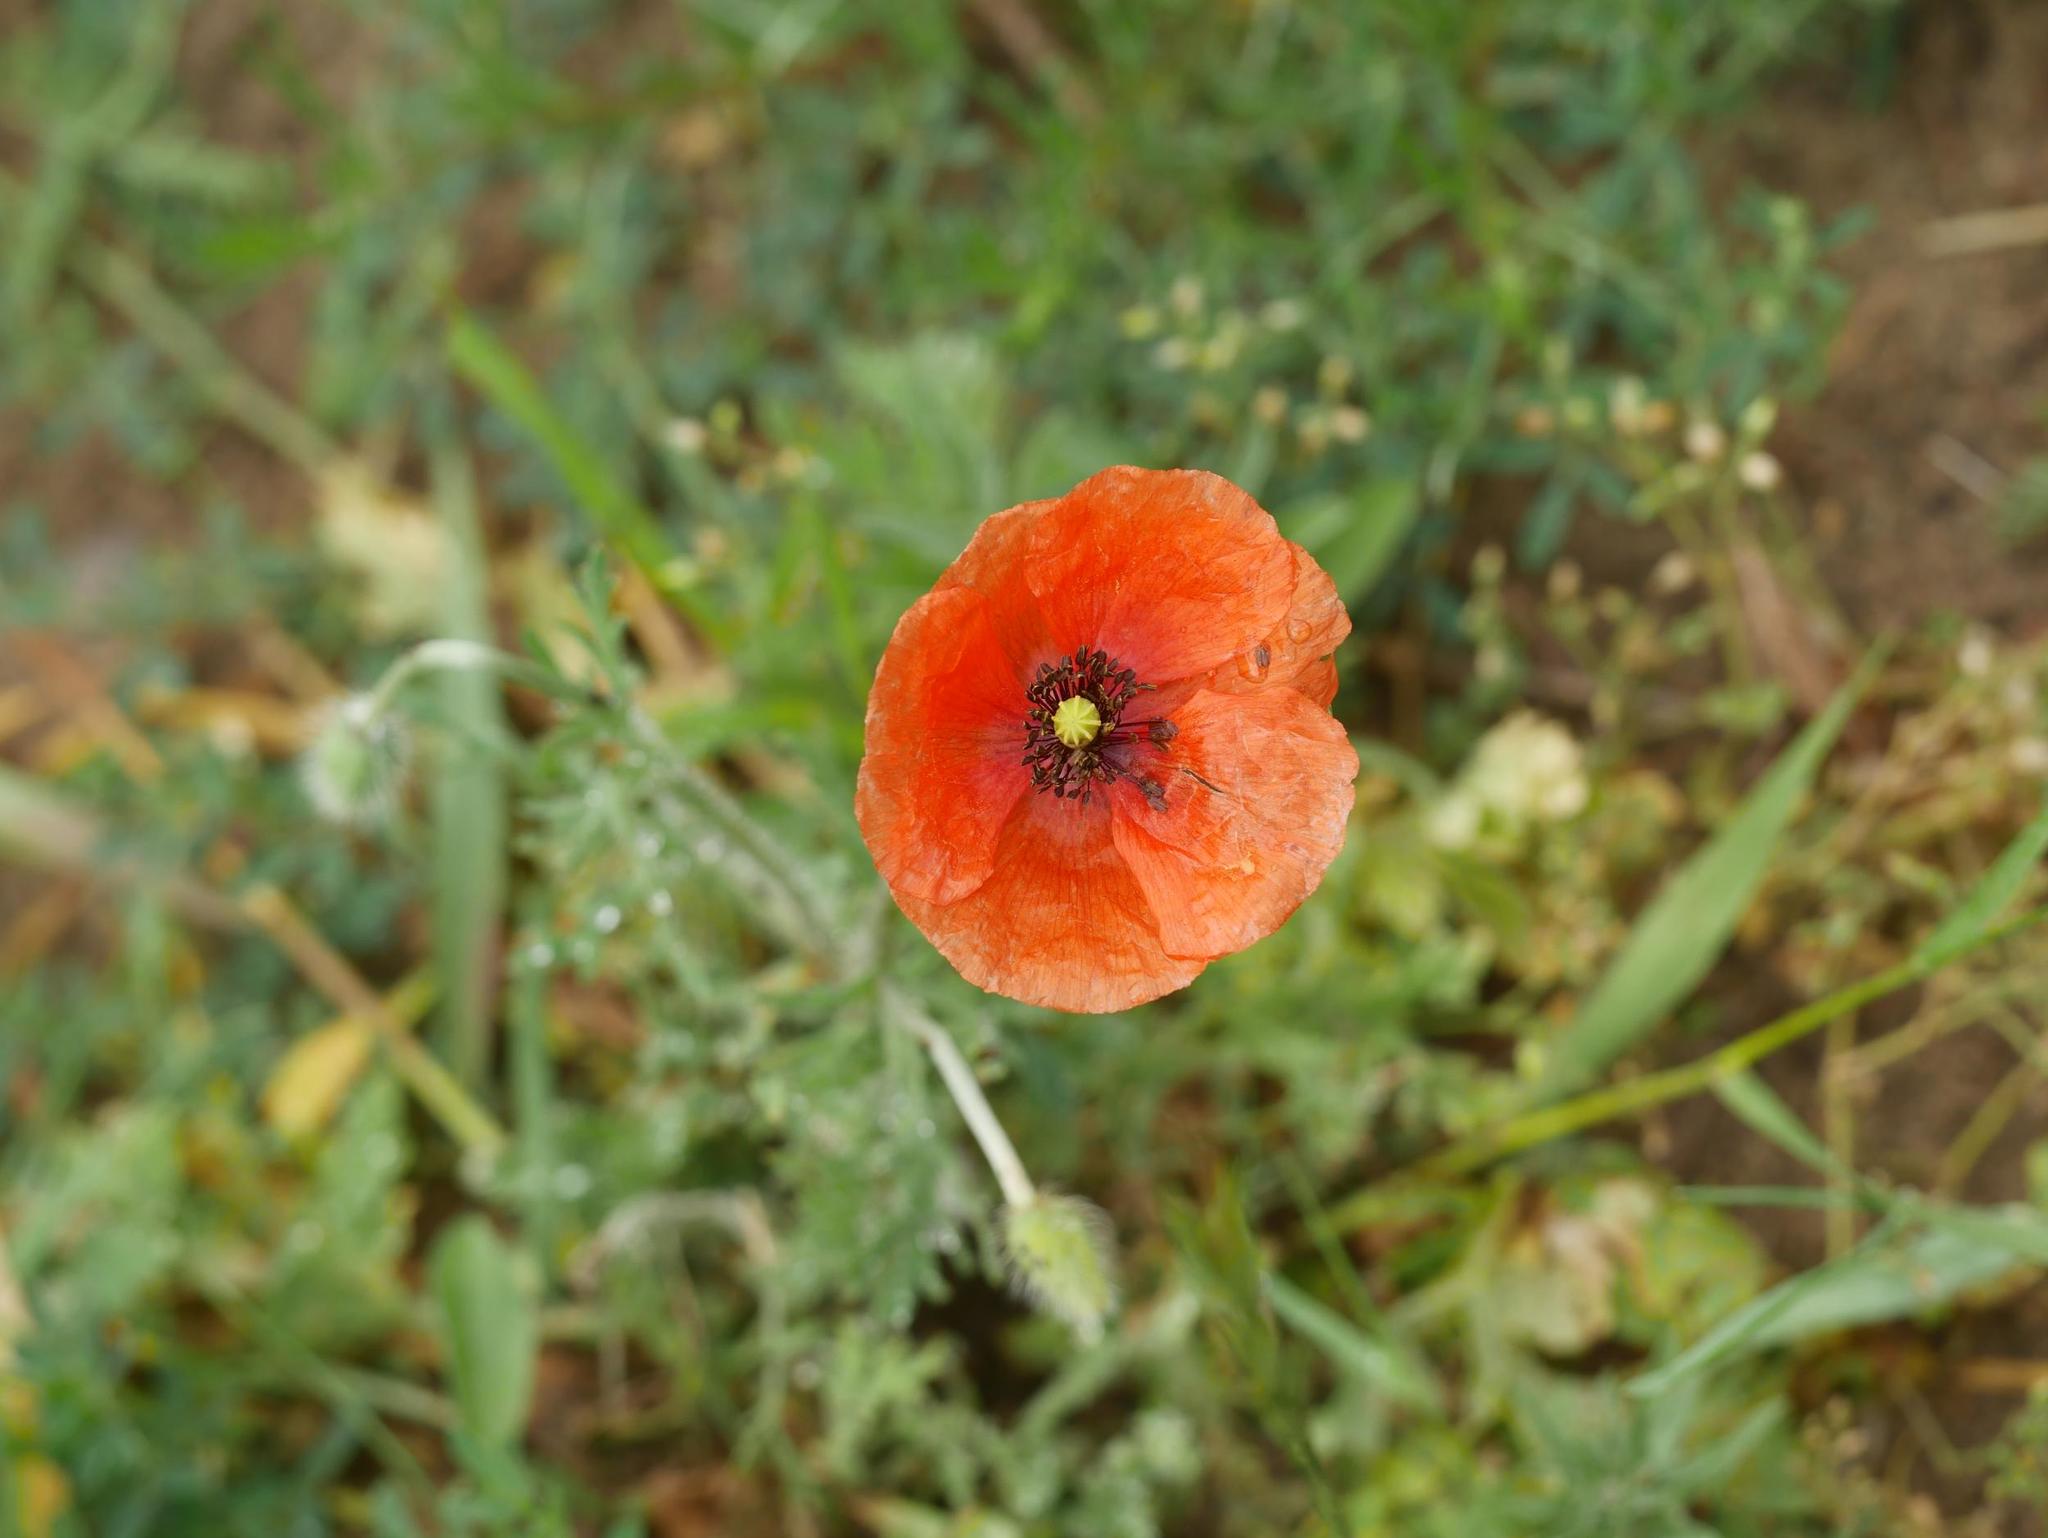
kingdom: Plantae
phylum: Tracheophyta
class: Magnoliopsida
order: Ranunculales
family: Papaveraceae
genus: Papaver
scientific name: Papaver dubium
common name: Long-headed poppy
